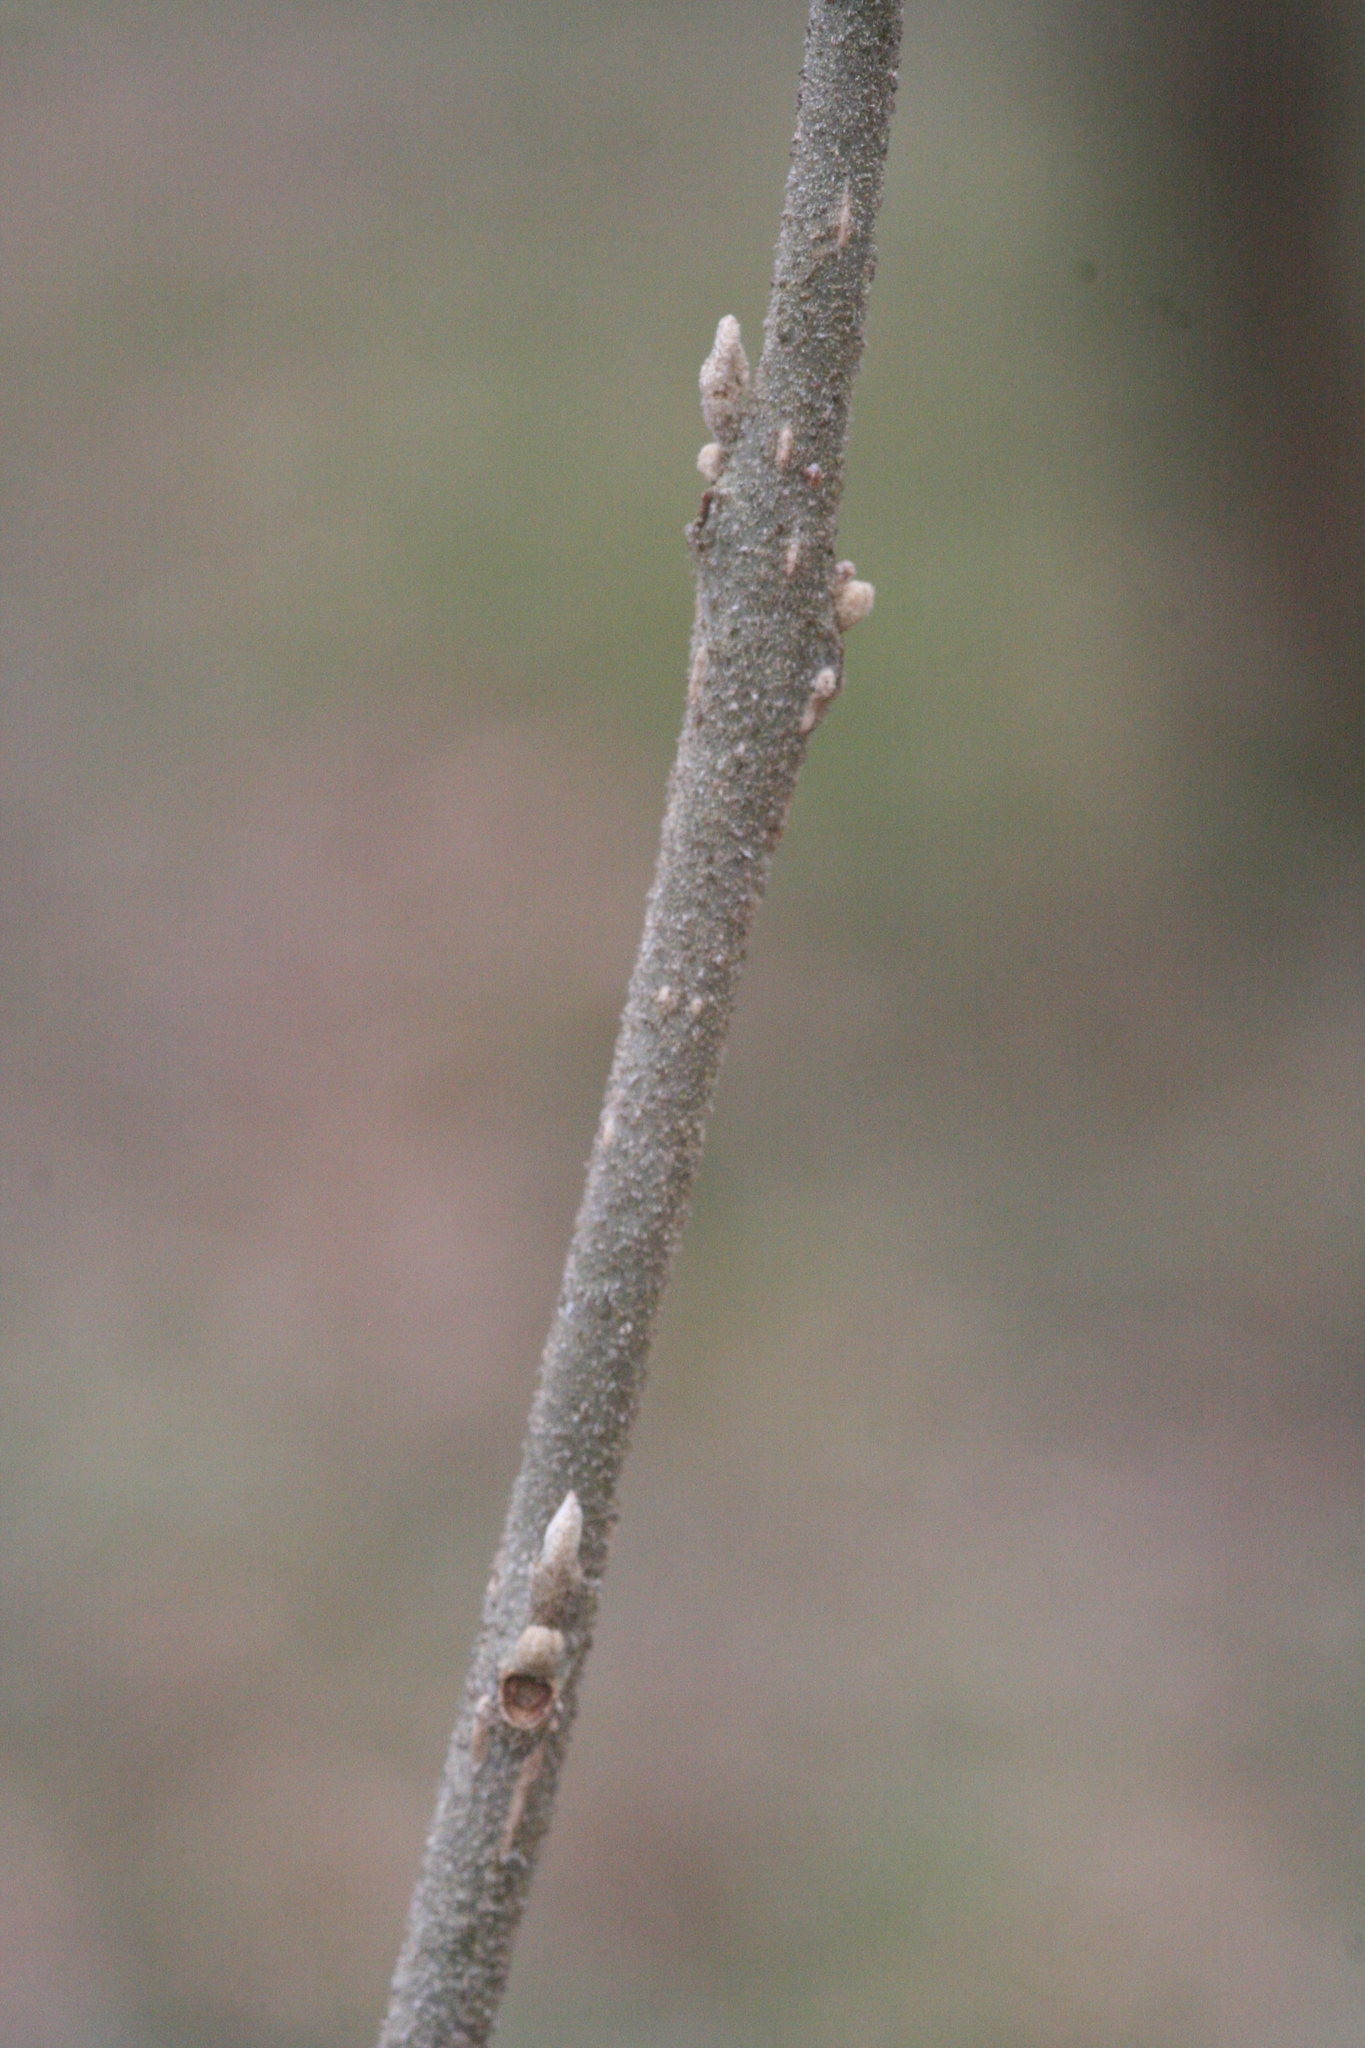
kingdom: Plantae
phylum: Tracheophyta
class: Magnoliopsida
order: Lamiales
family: Lamiaceae
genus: Callicarpa
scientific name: Callicarpa americana
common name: American beautyberry
